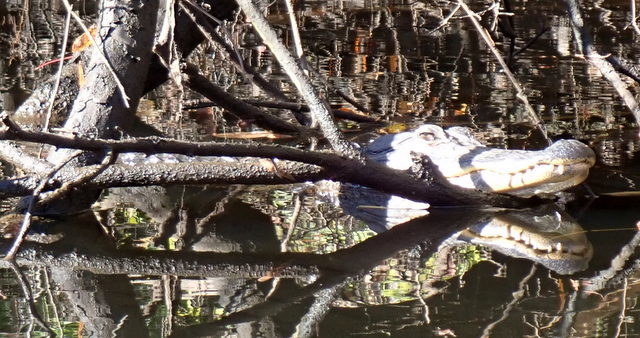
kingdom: Animalia
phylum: Chordata
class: Crocodylia
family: Alligatoridae
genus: Alligator
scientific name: Alligator mississippiensis
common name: American alligator
